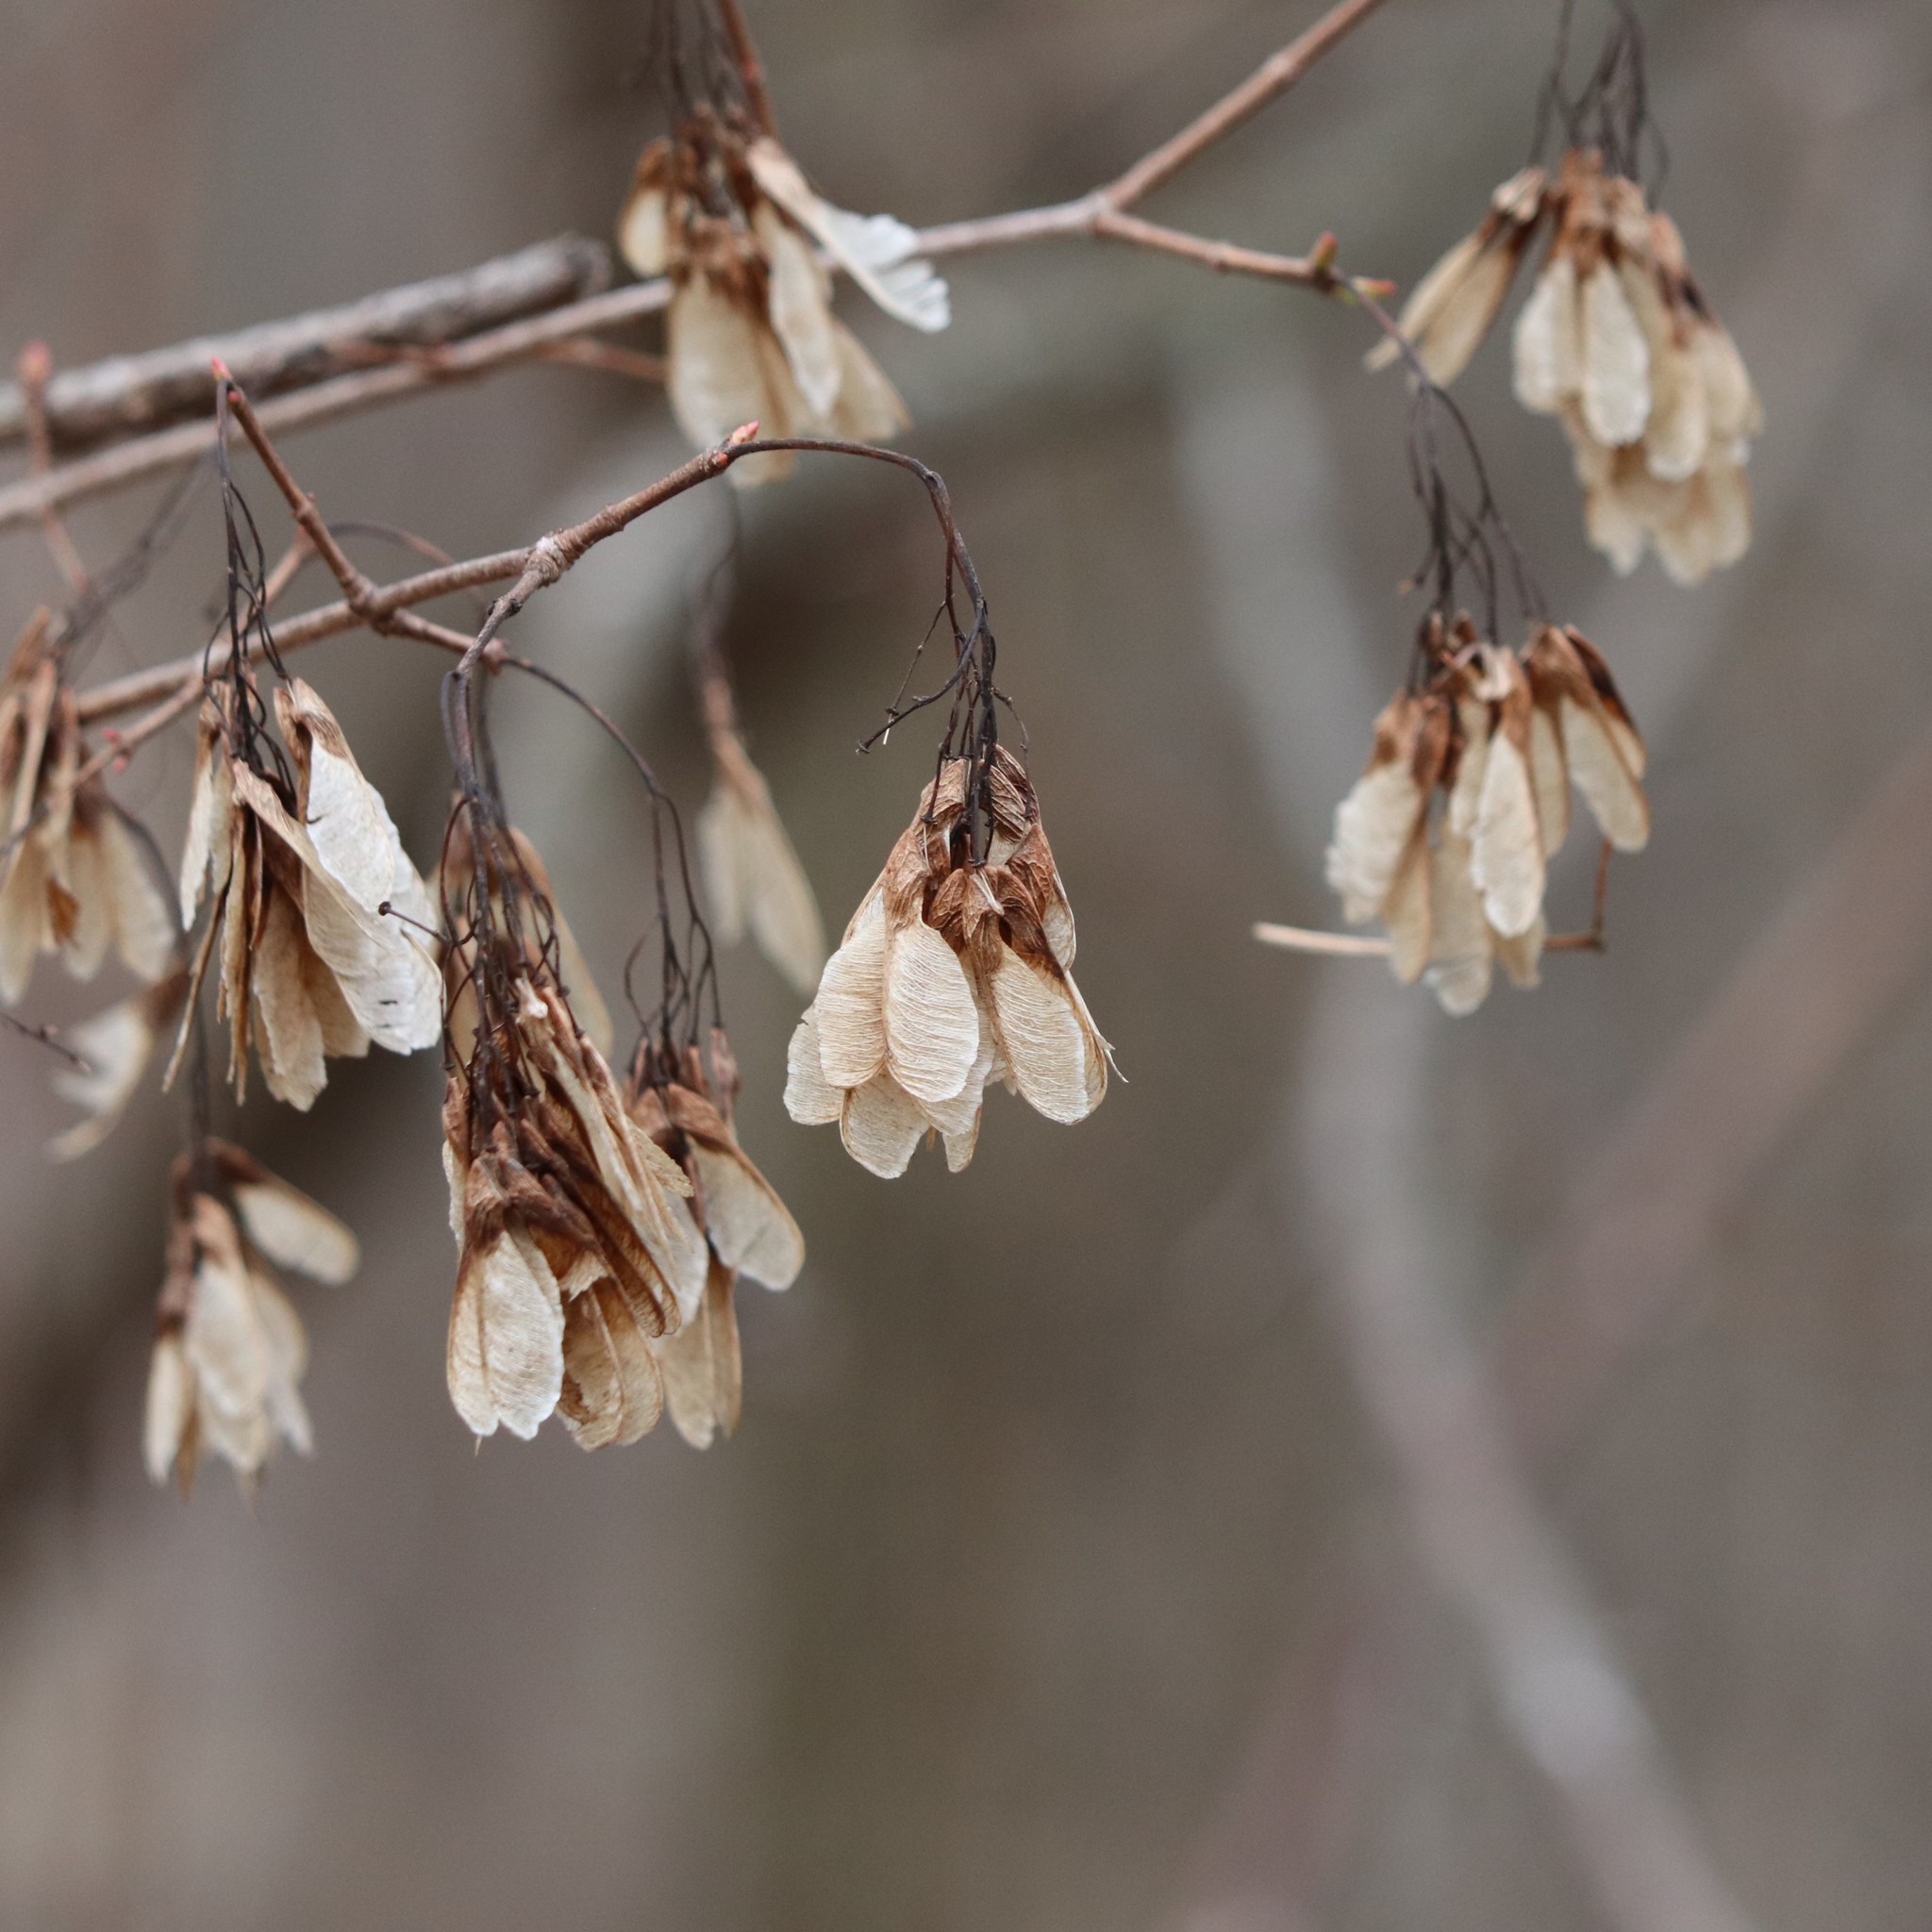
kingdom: Plantae
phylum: Tracheophyta
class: Magnoliopsida
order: Sapindales
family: Sapindaceae
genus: Acer
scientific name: Acer tataricum
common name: Tartar maple
